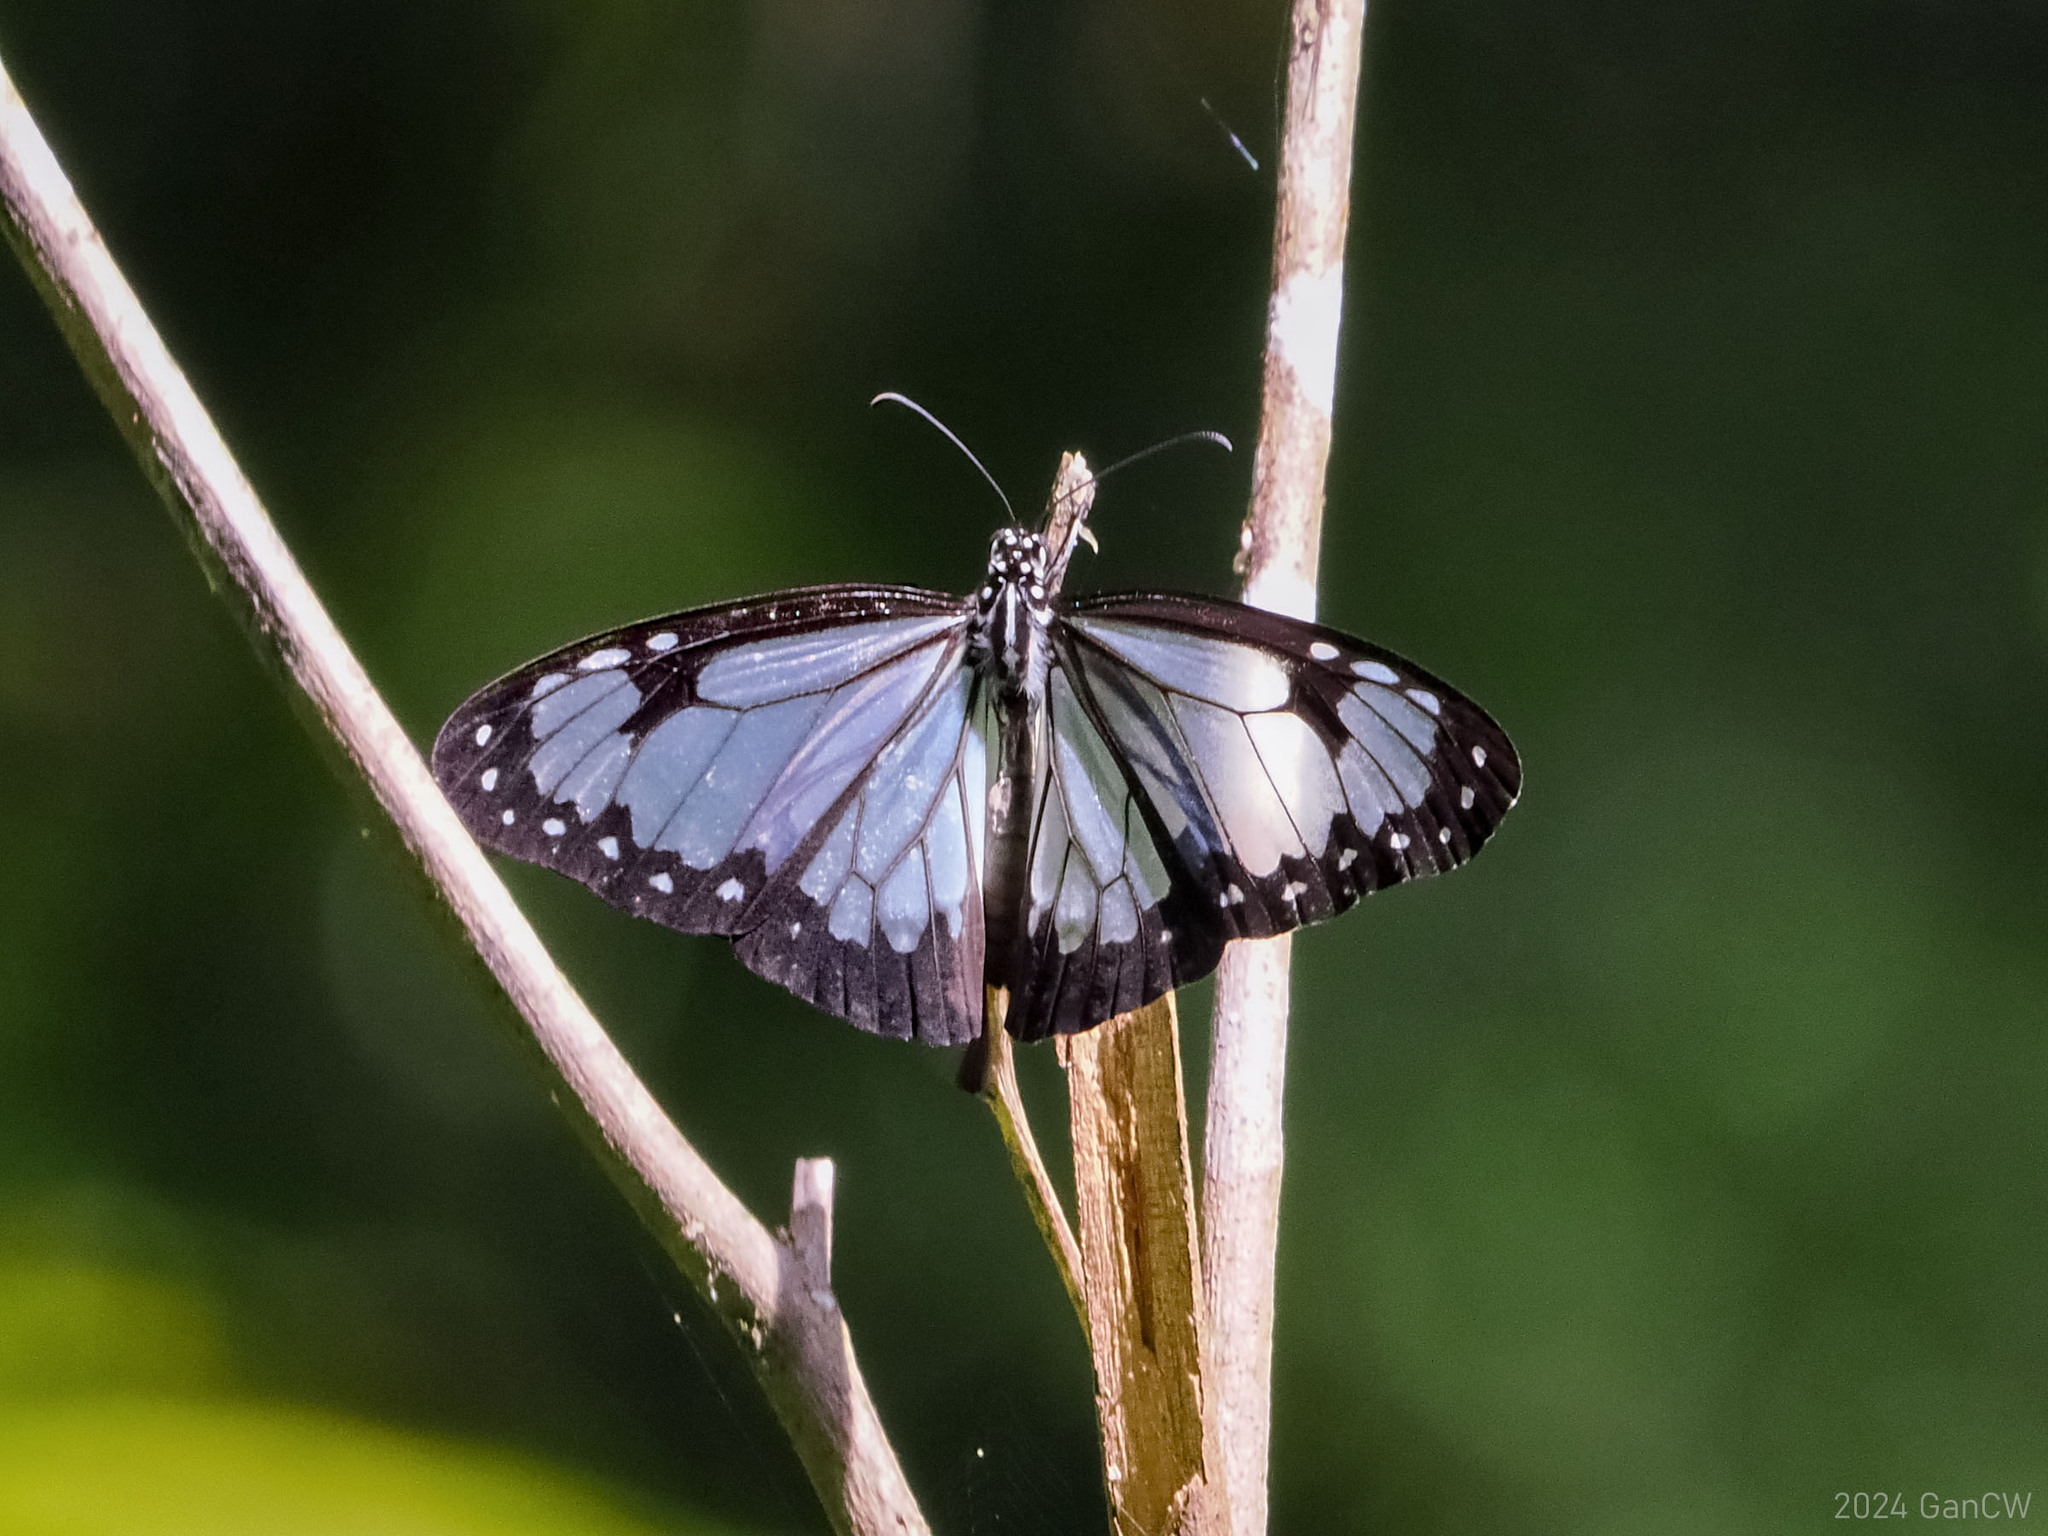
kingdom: Animalia
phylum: Arthropoda
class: Insecta
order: Lepidoptera
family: Nymphalidae
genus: Parantica
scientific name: Parantica vitrina
